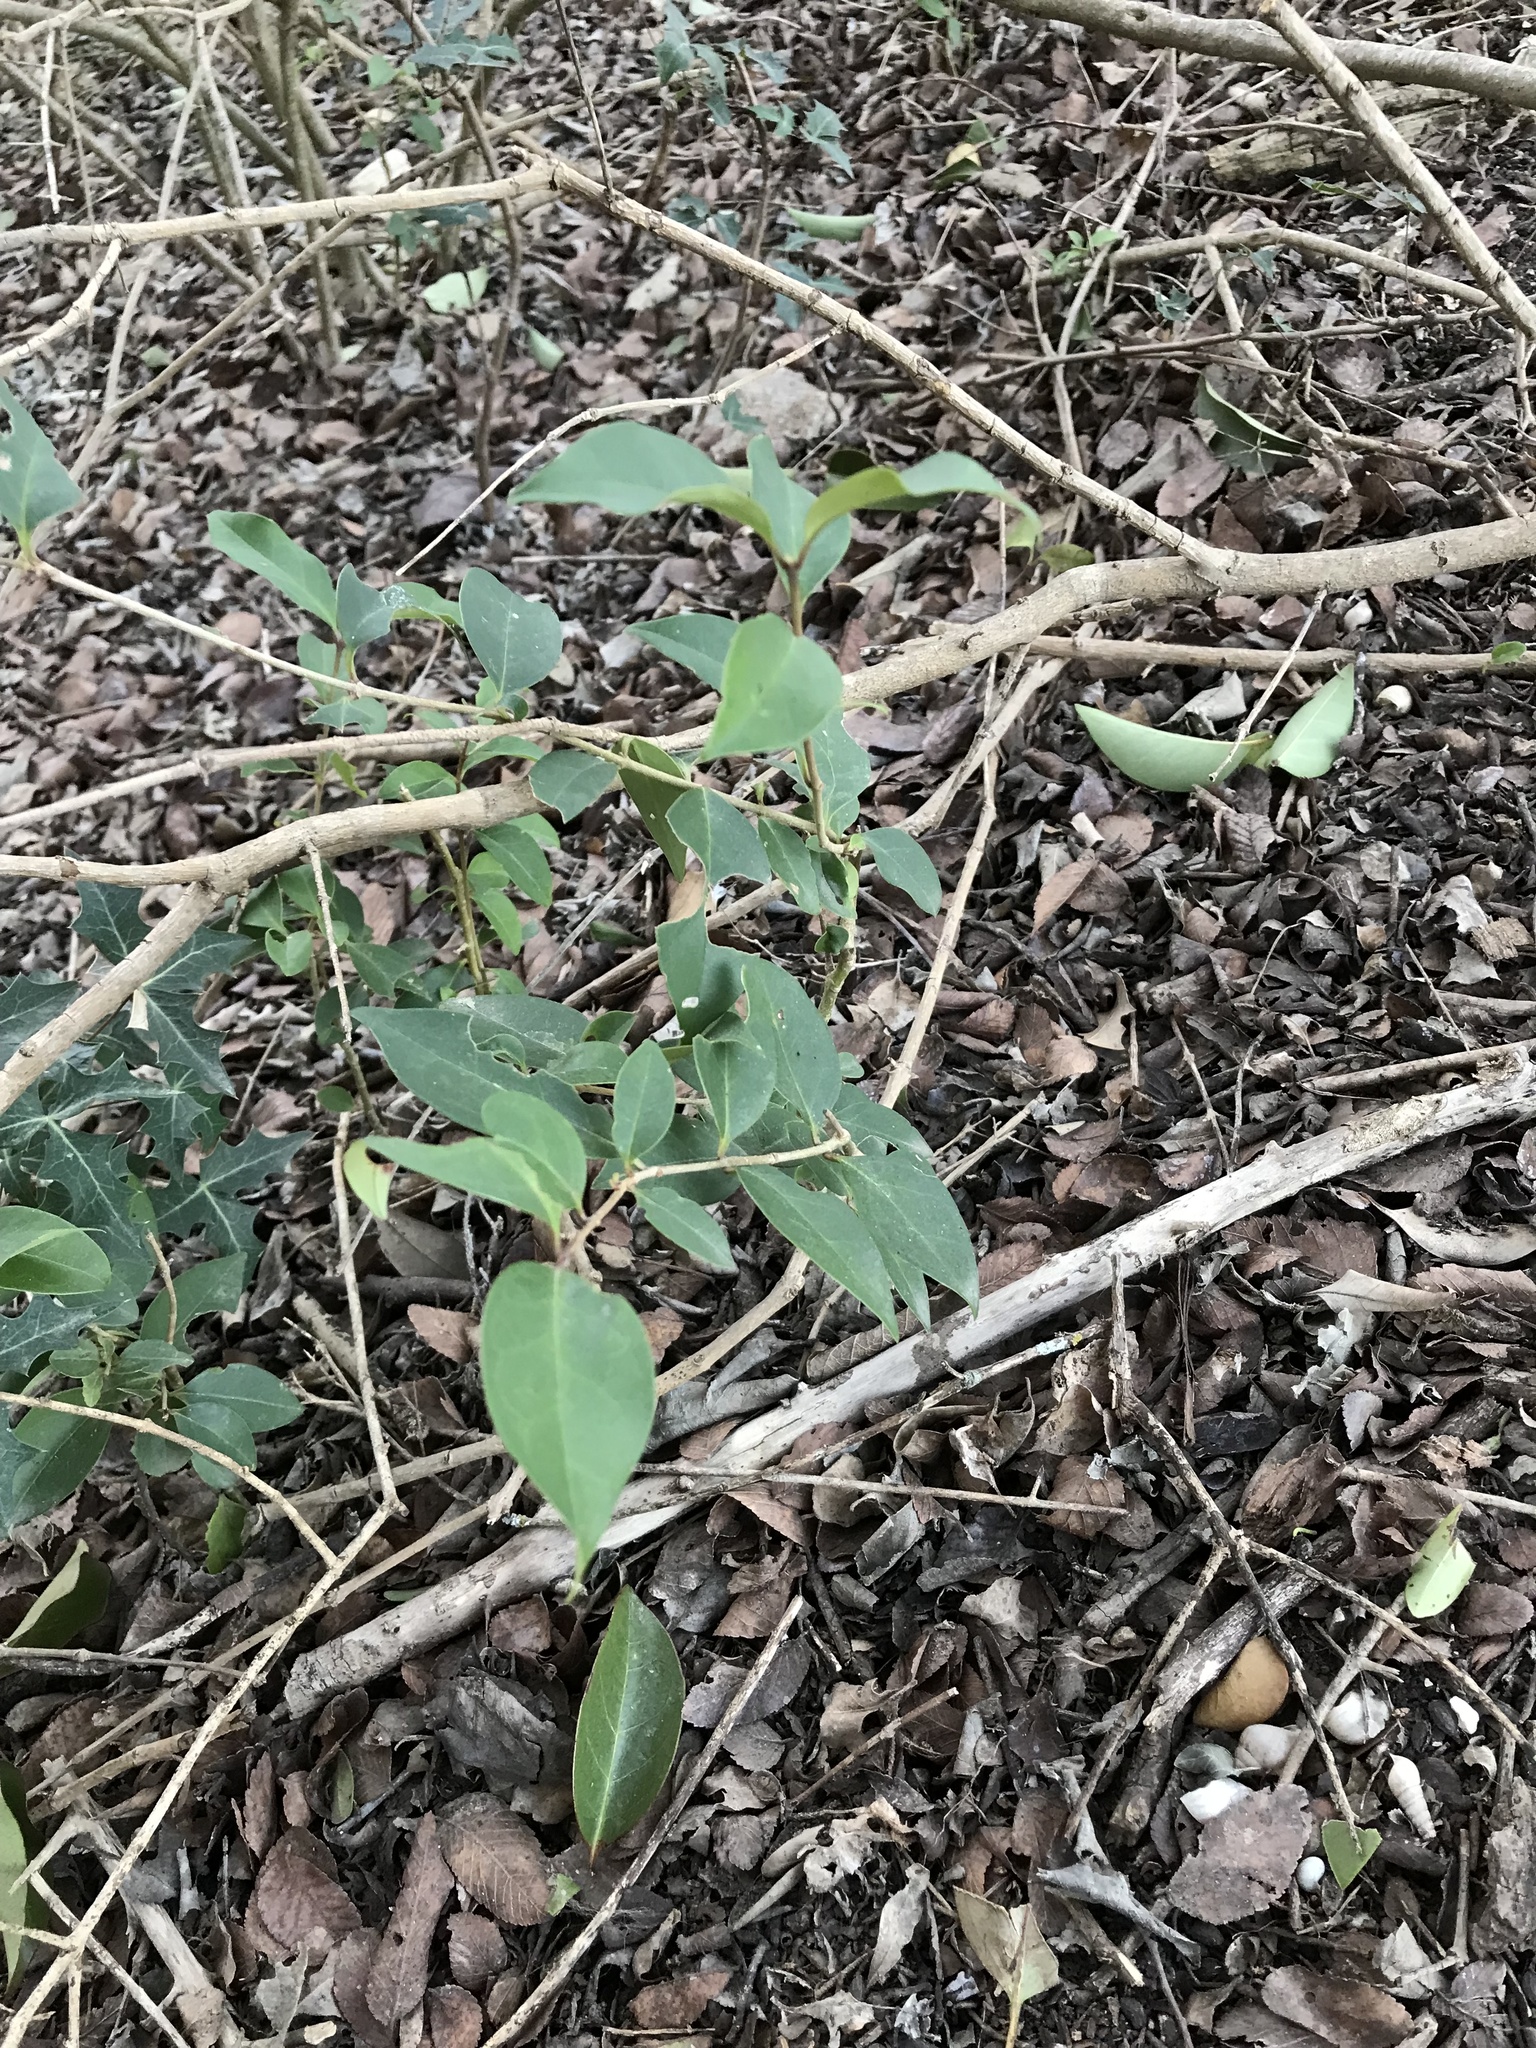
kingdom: Plantae
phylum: Tracheophyta
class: Magnoliopsida
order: Lamiales
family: Oleaceae
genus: Ligustrum
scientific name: Ligustrum lucidum
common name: Glossy privet
